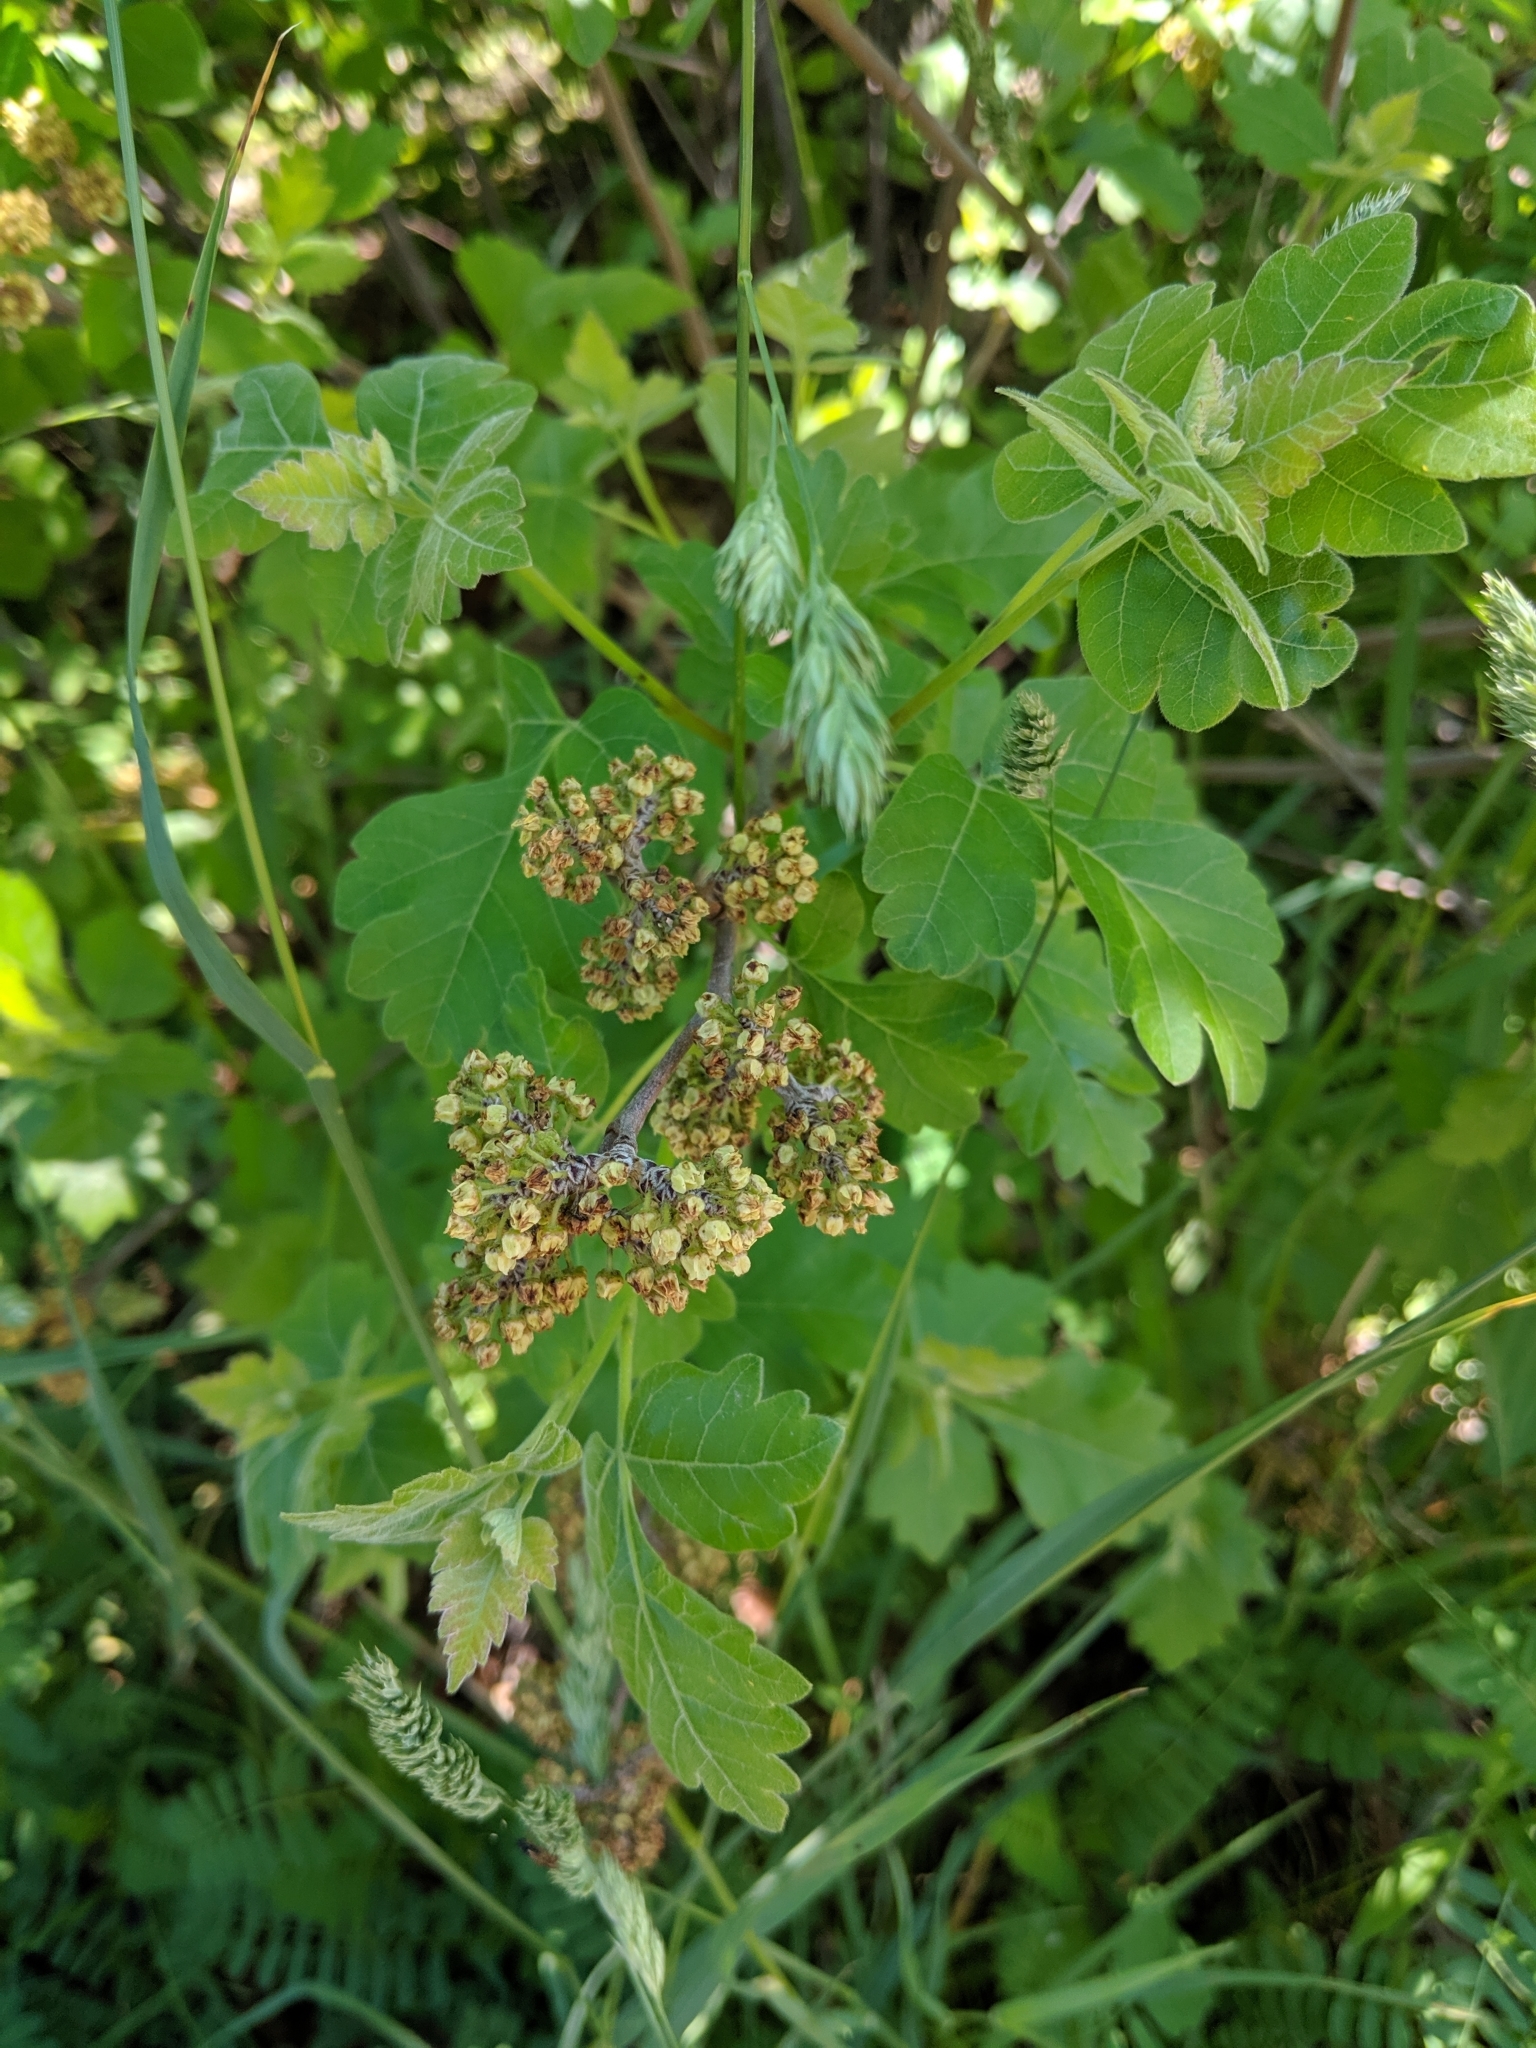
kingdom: Plantae
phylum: Tracheophyta
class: Magnoliopsida
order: Sapindales
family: Anacardiaceae
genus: Rhus
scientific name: Rhus aromatica
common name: Aromatic sumac
